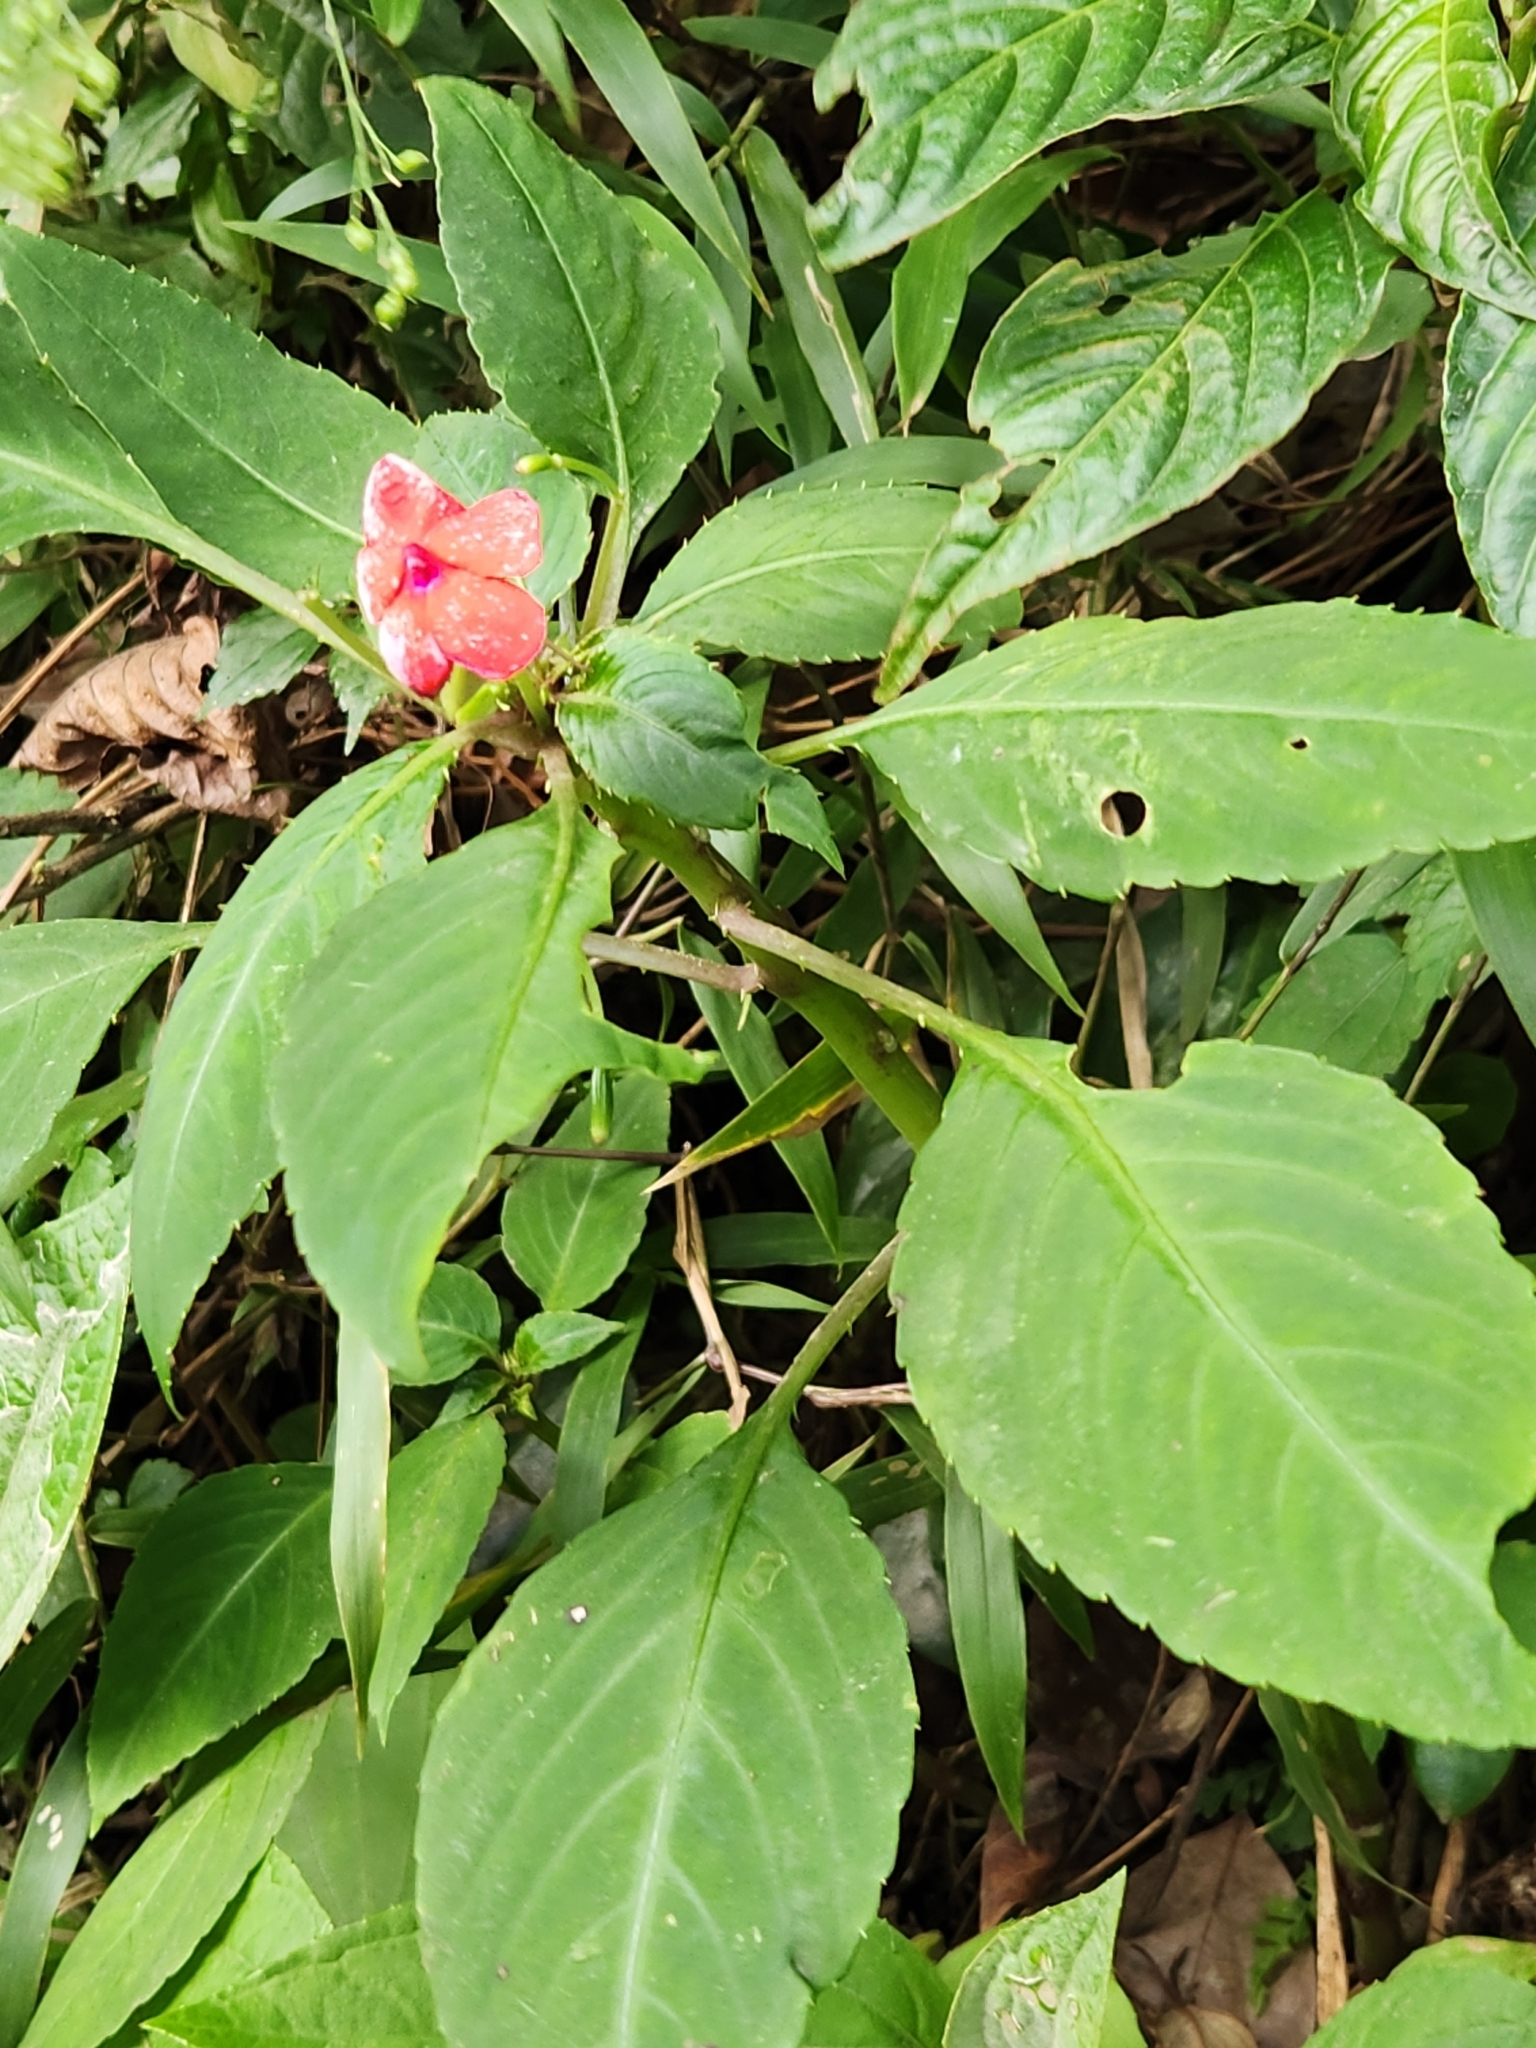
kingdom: Plantae
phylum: Tracheophyta
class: Magnoliopsida
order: Ericales
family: Balsaminaceae
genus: Impatiens
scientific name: Impatiens walleriana
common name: Buzzy lizzy
